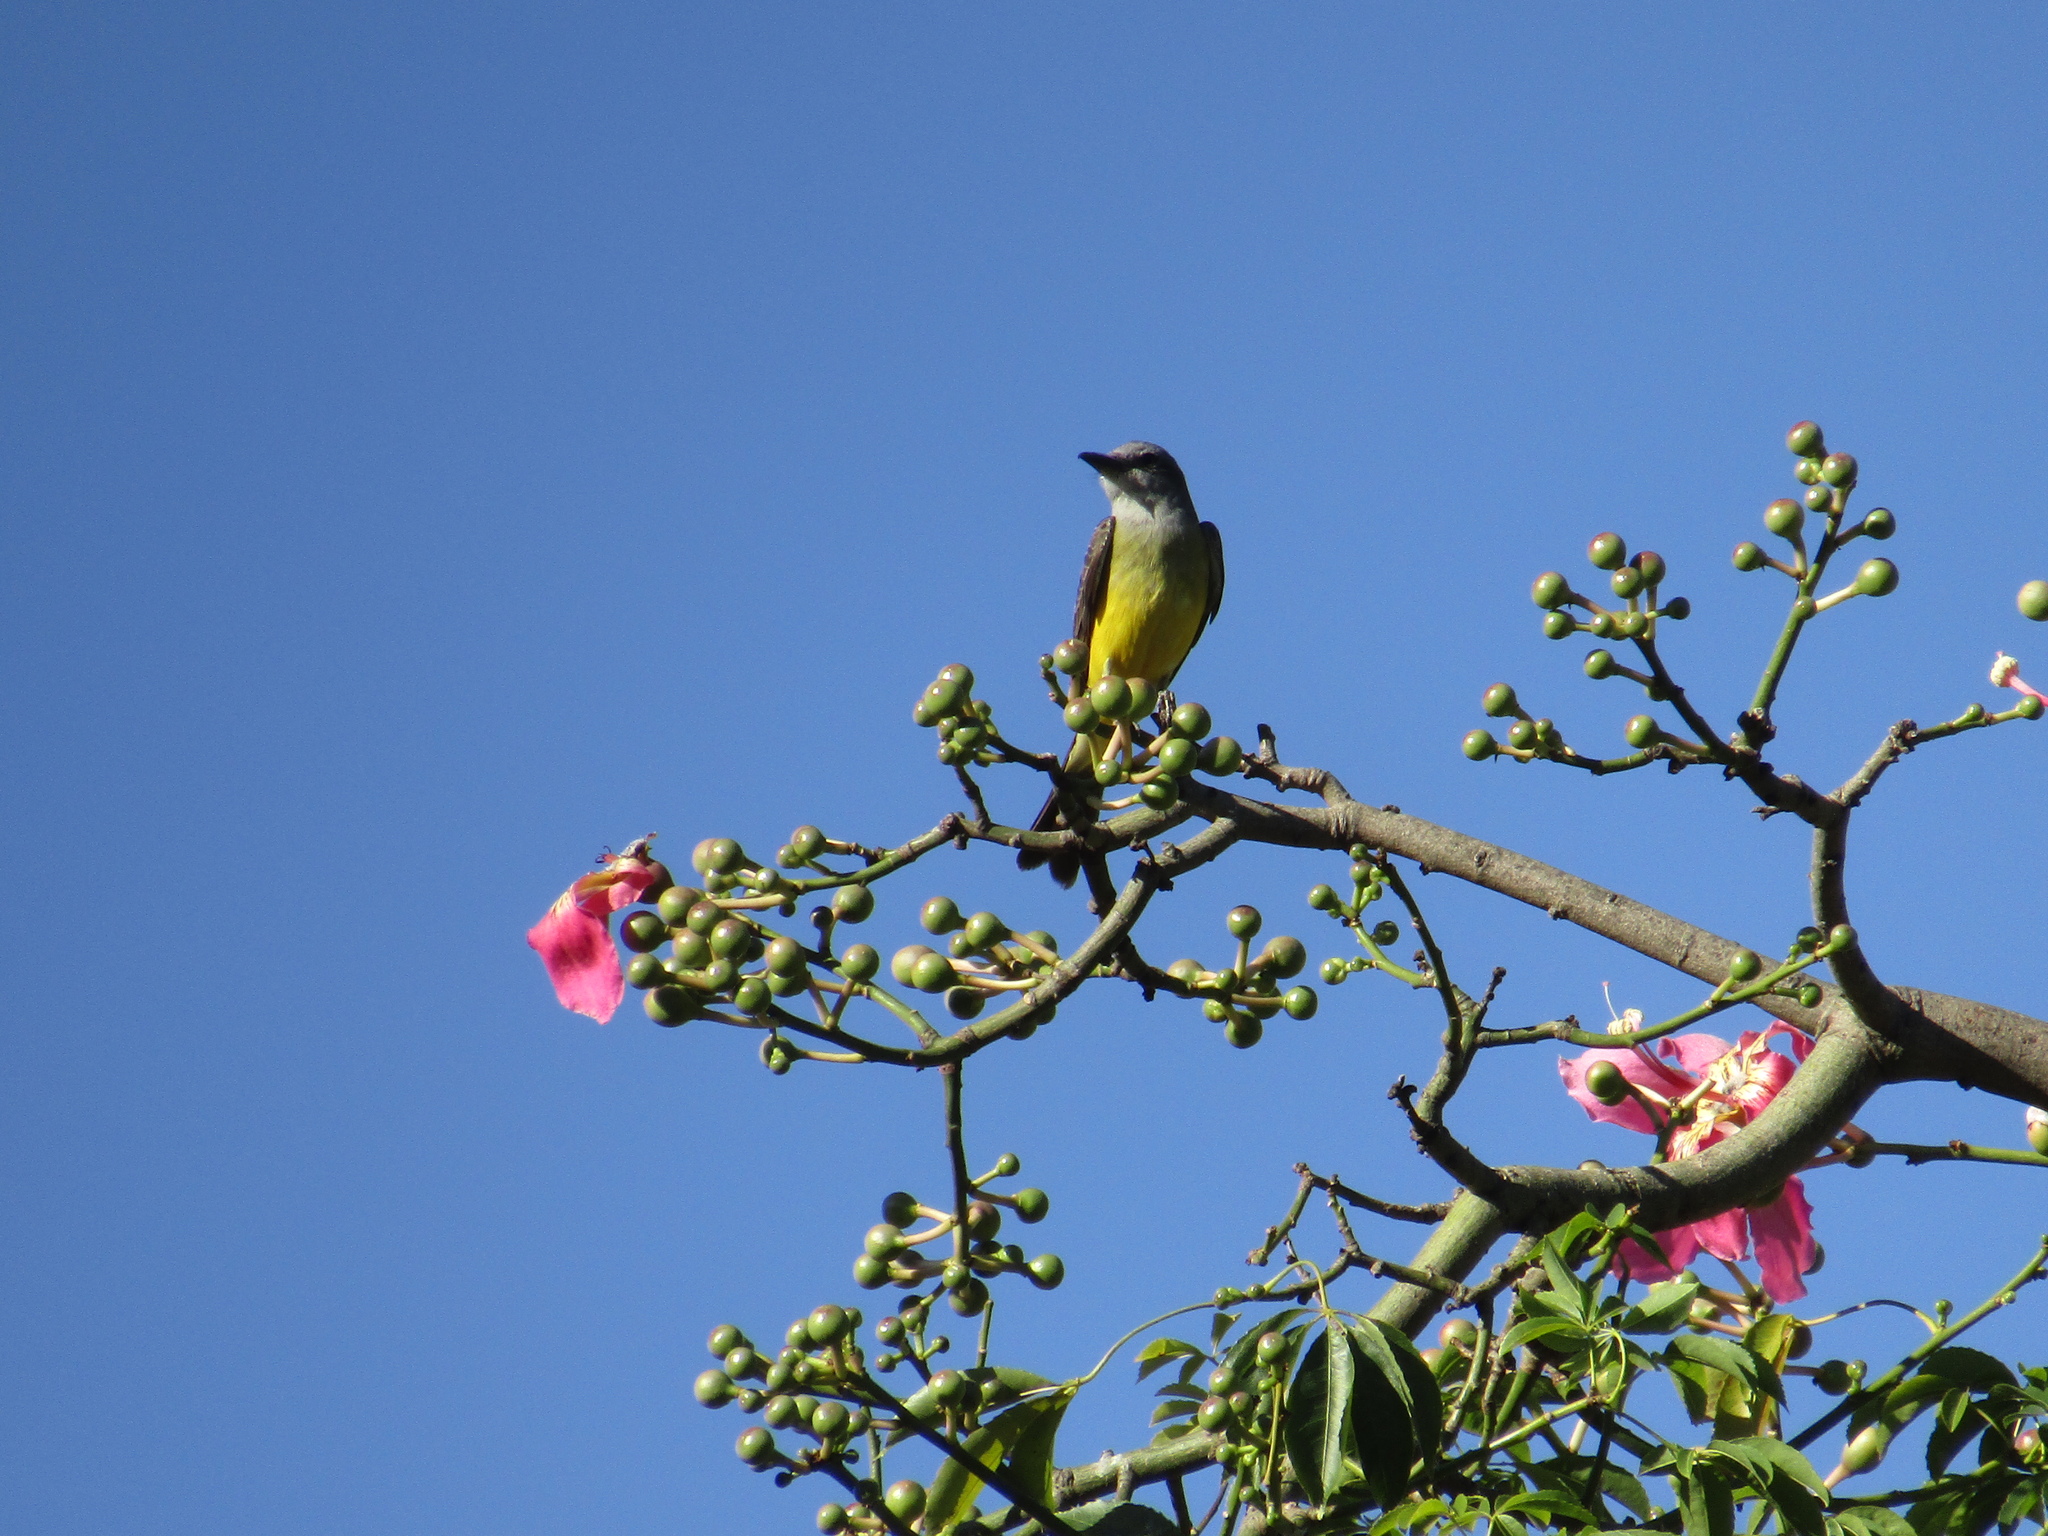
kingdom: Animalia
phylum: Chordata
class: Aves
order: Passeriformes
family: Tyrannidae
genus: Tyrannus
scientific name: Tyrannus melancholicus
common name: Tropical kingbird
